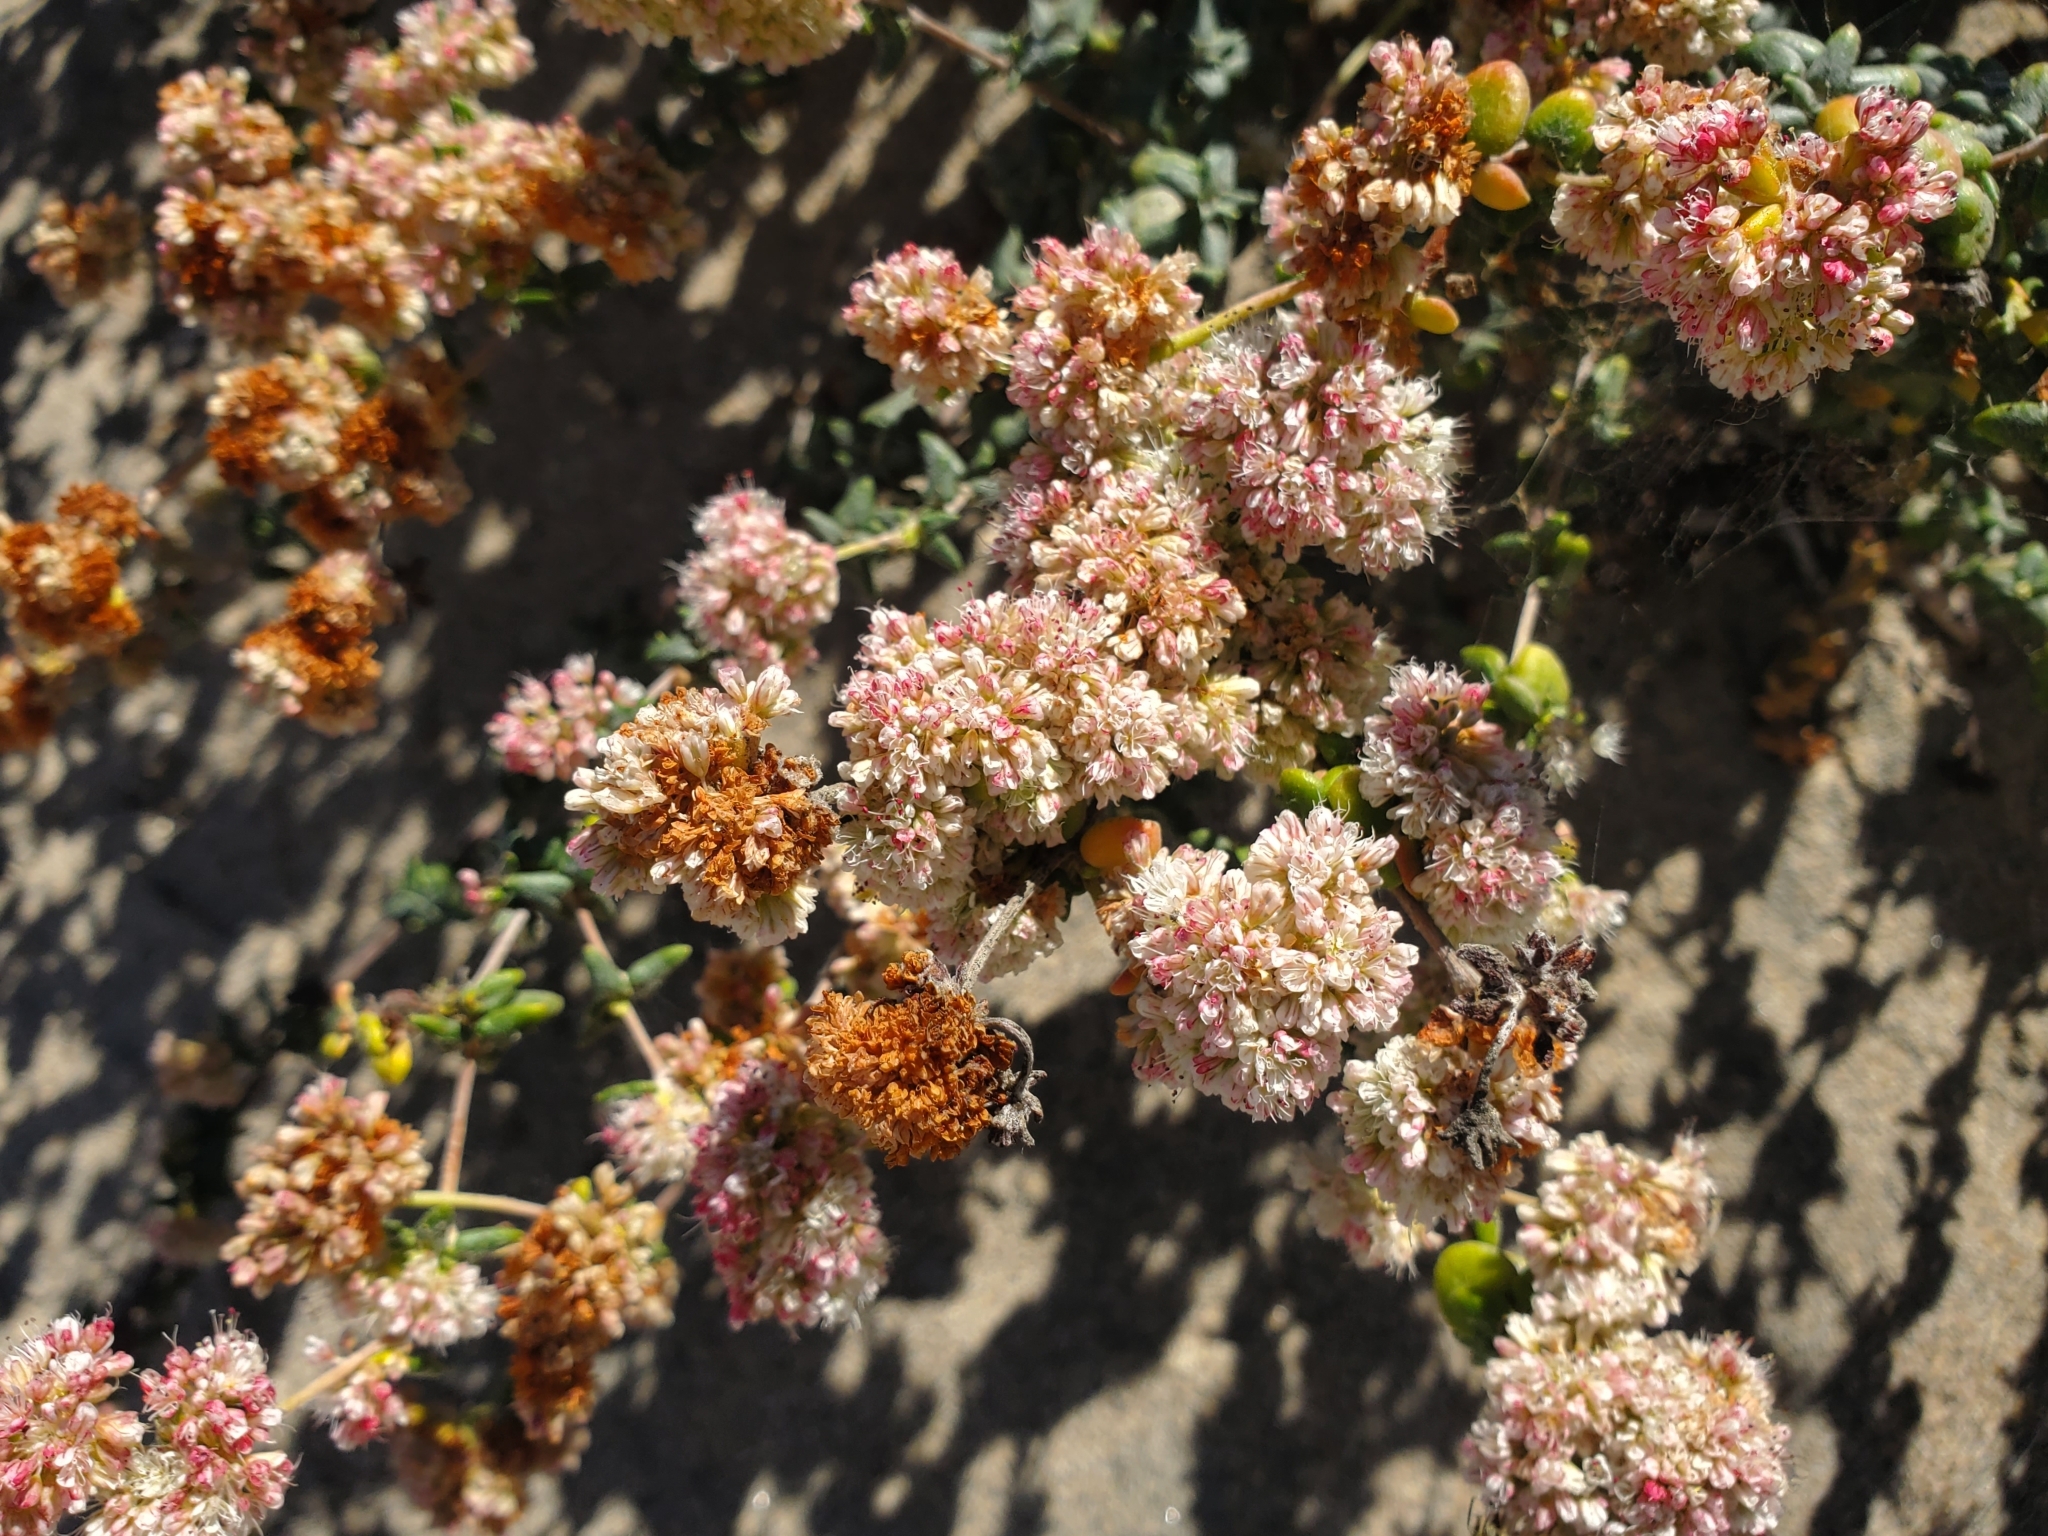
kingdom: Plantae
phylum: Tracheophyta
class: Magnoliopsida
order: Caryophyllales
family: Polygonaceae
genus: Eriogonum
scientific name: Eriogonum parvifolium
